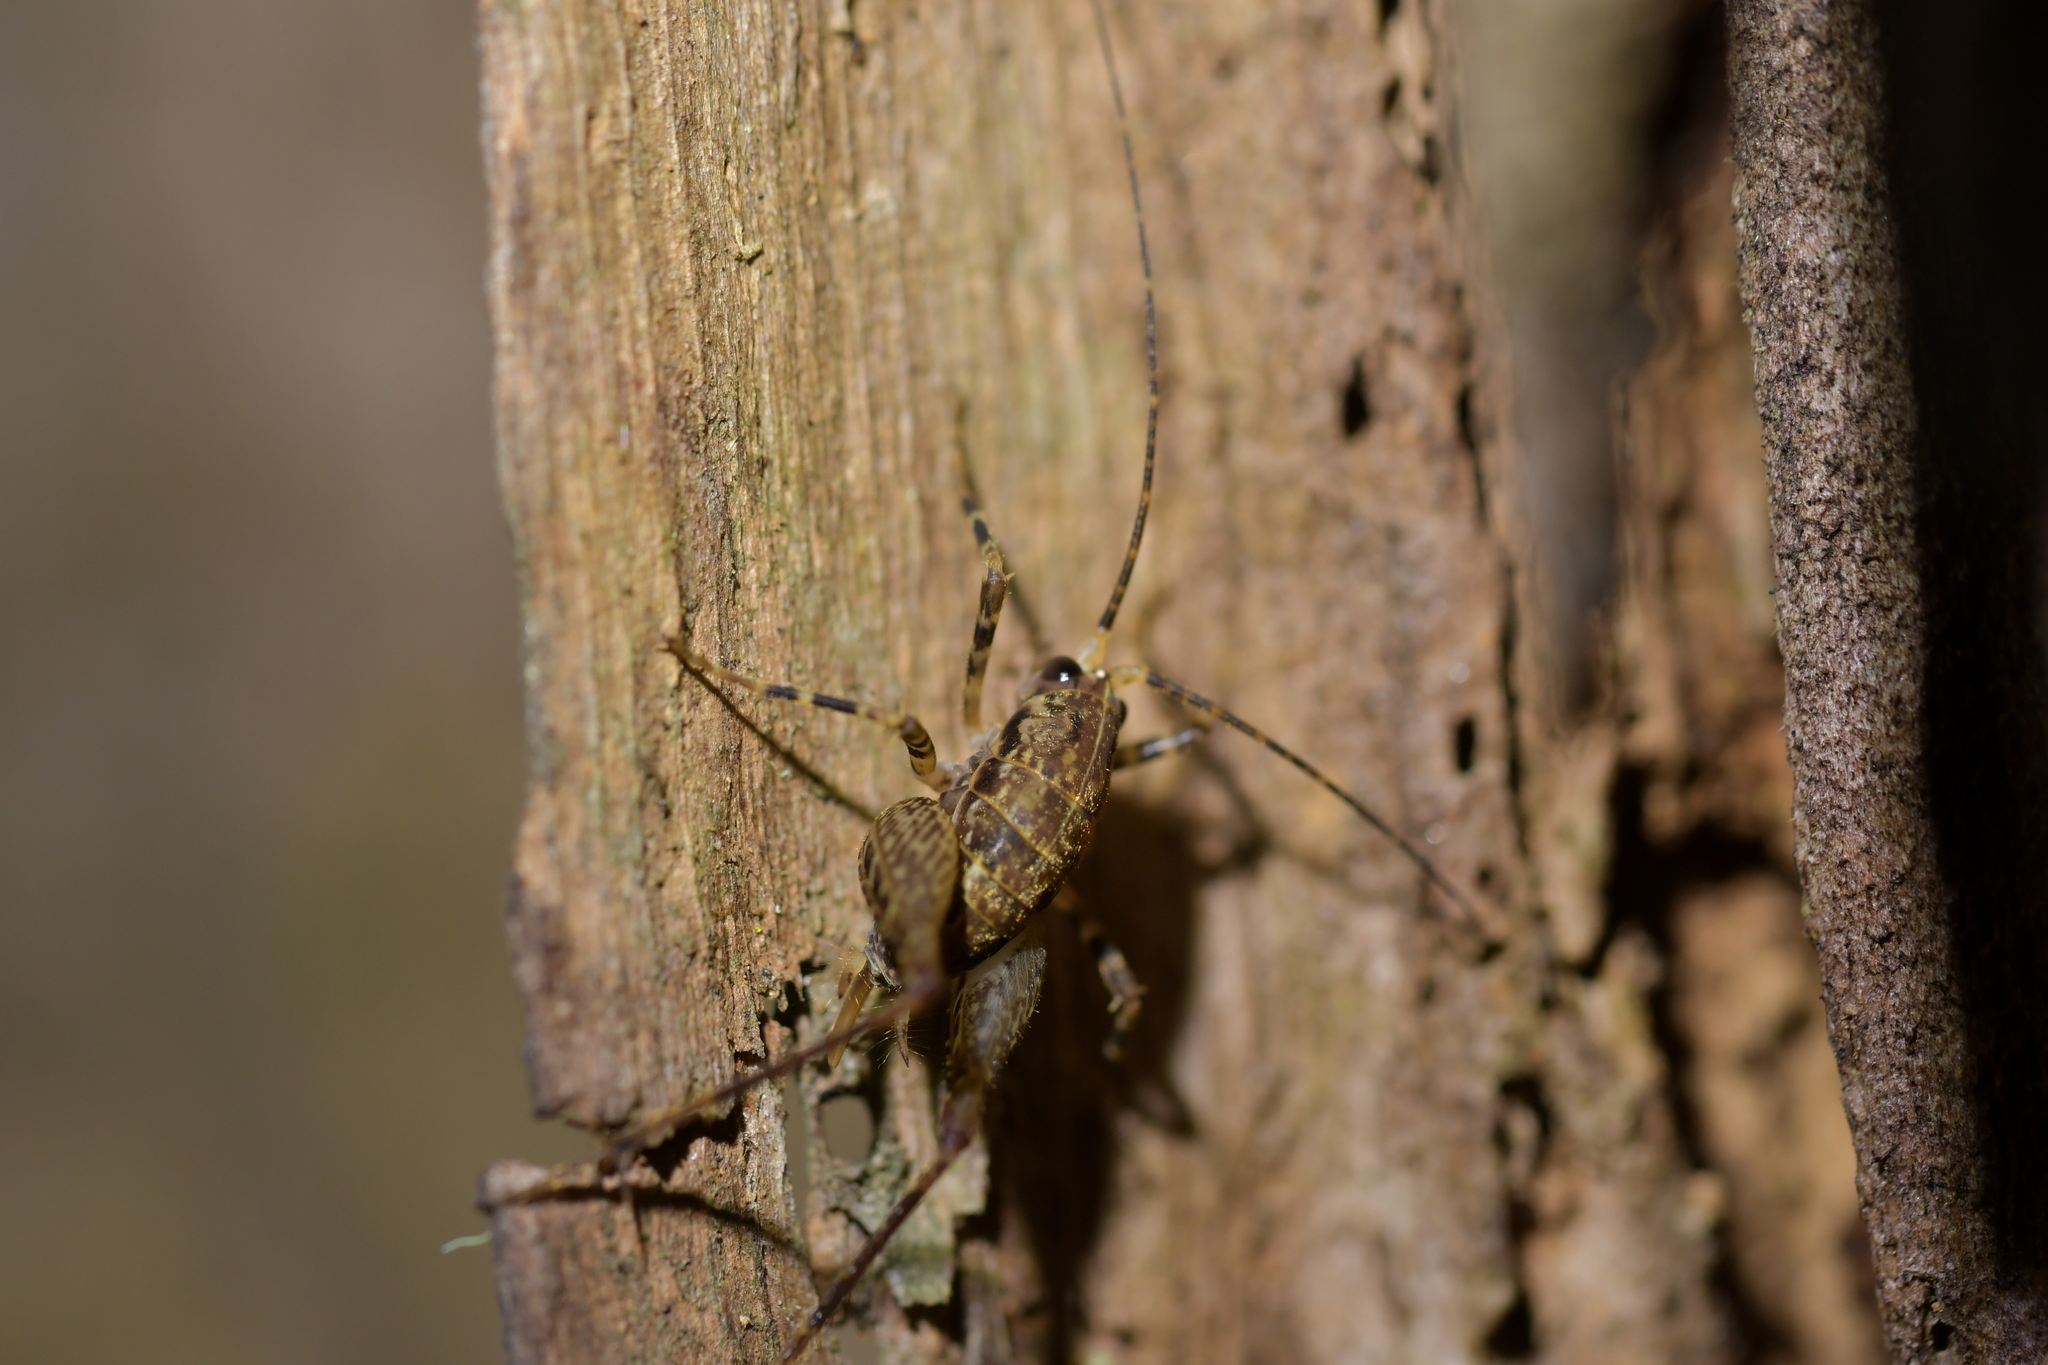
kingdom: Animalia
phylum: Arthropoda
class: Insecta
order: Orthoptera
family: Rhaphidophoridae
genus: Pleioplectron
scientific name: Pleioplectron hudsoni
